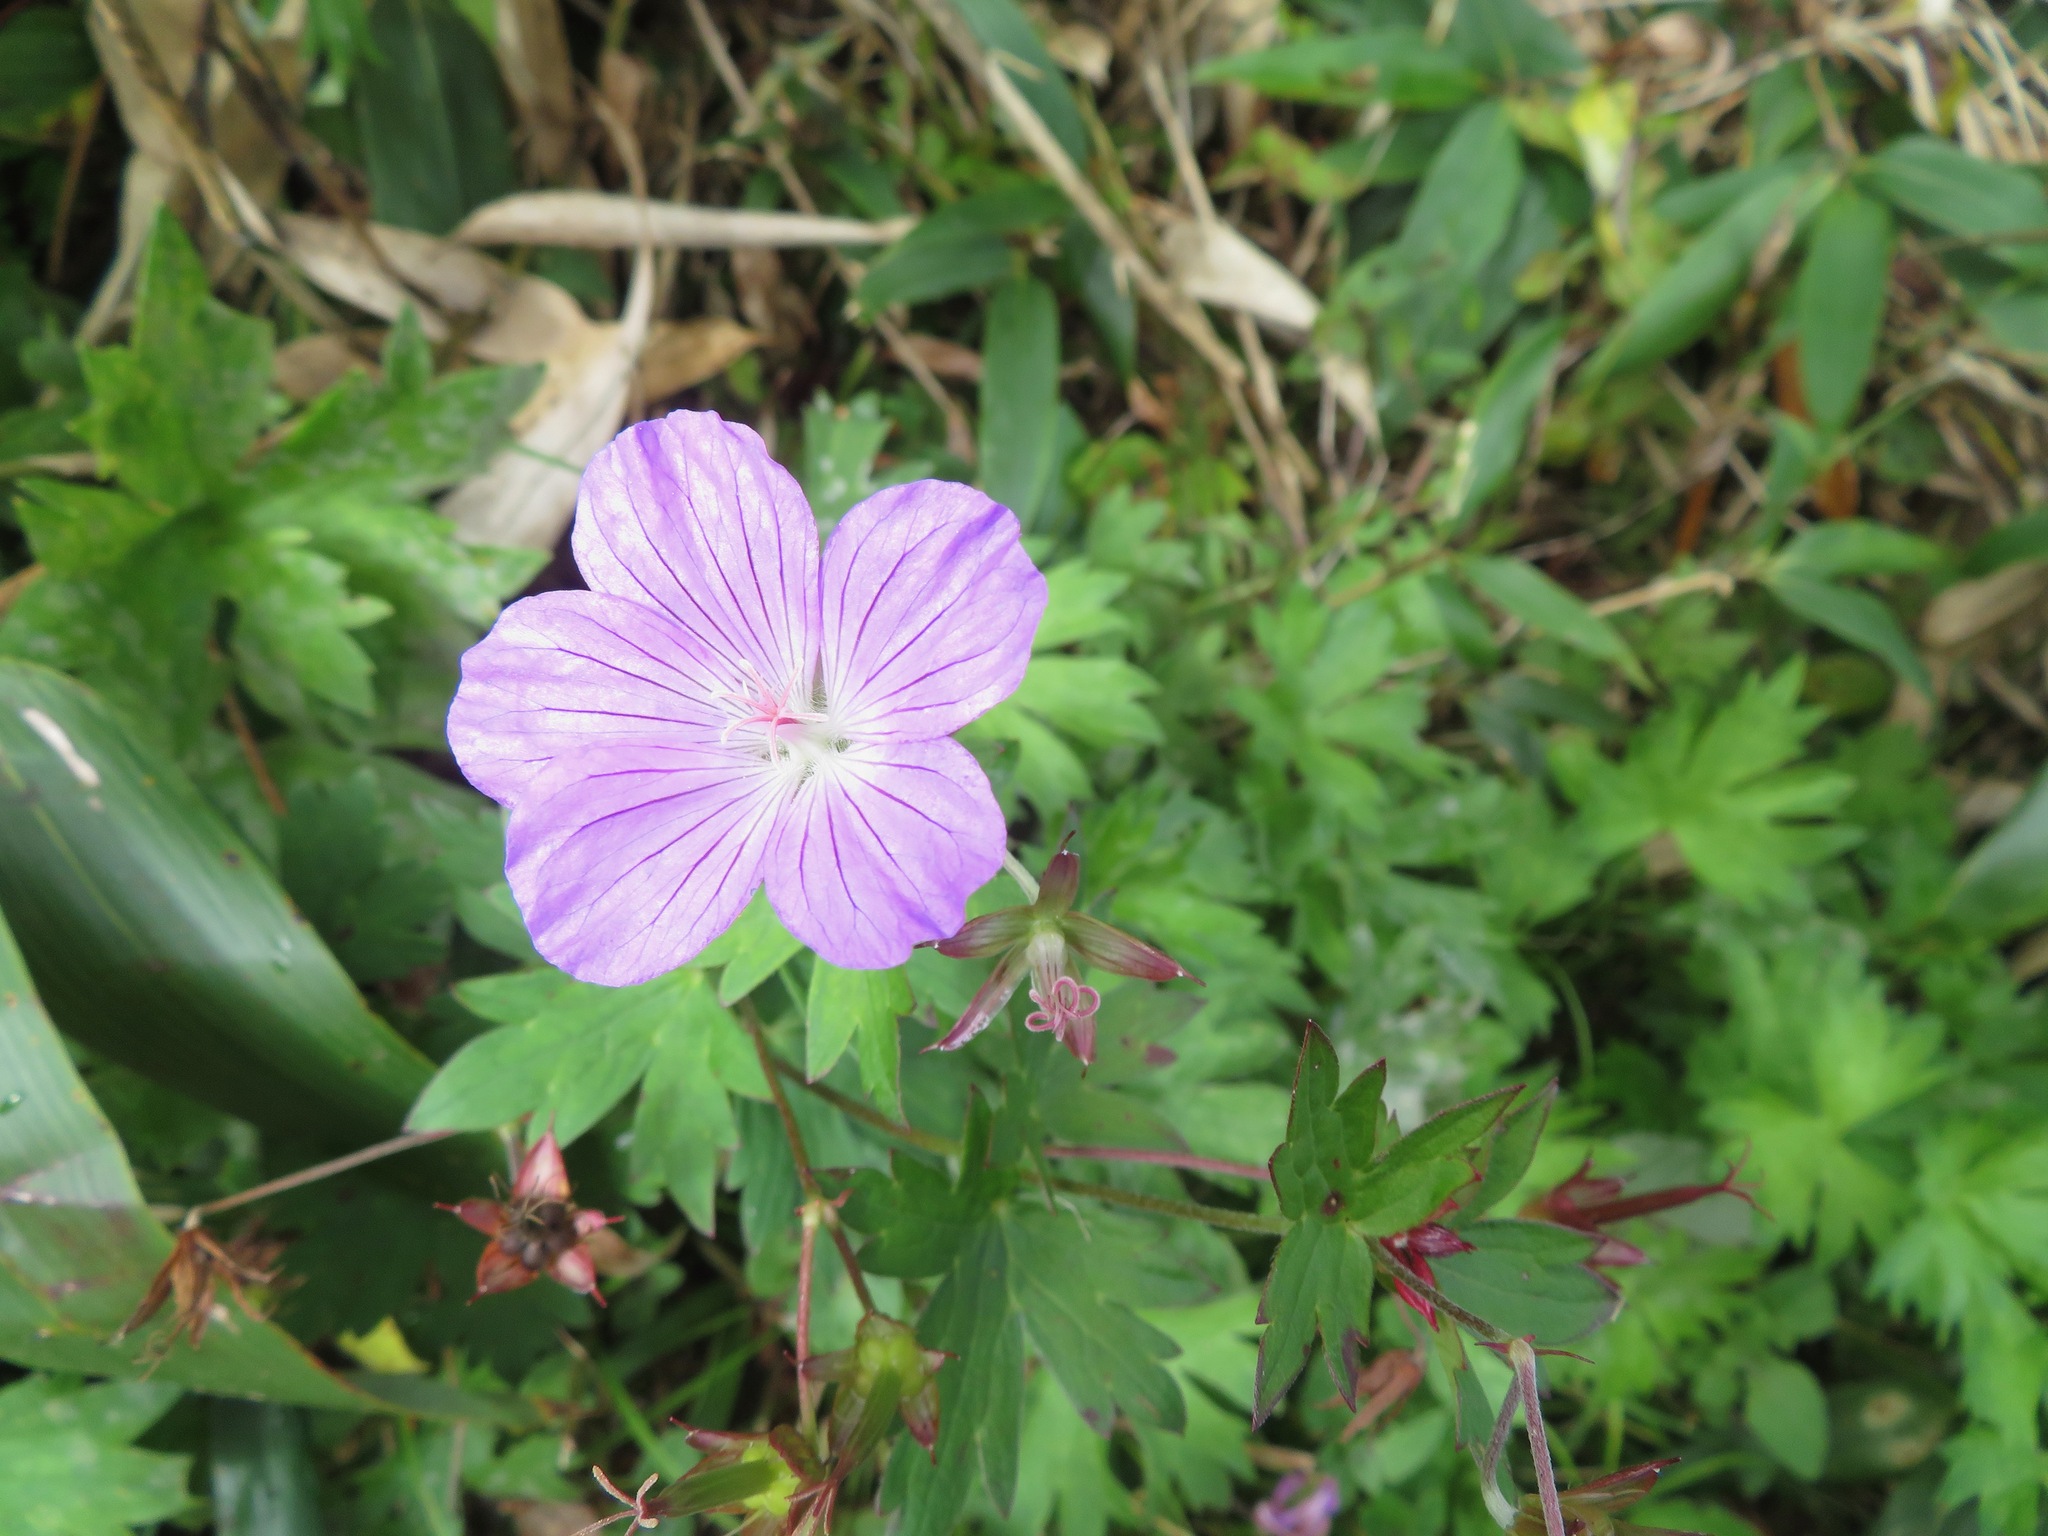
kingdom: Plantae
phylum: Tracheophyta
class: Magnoliopsida
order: Geraniales
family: Geraniaceae
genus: Geranium
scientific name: Geranium yesoense
